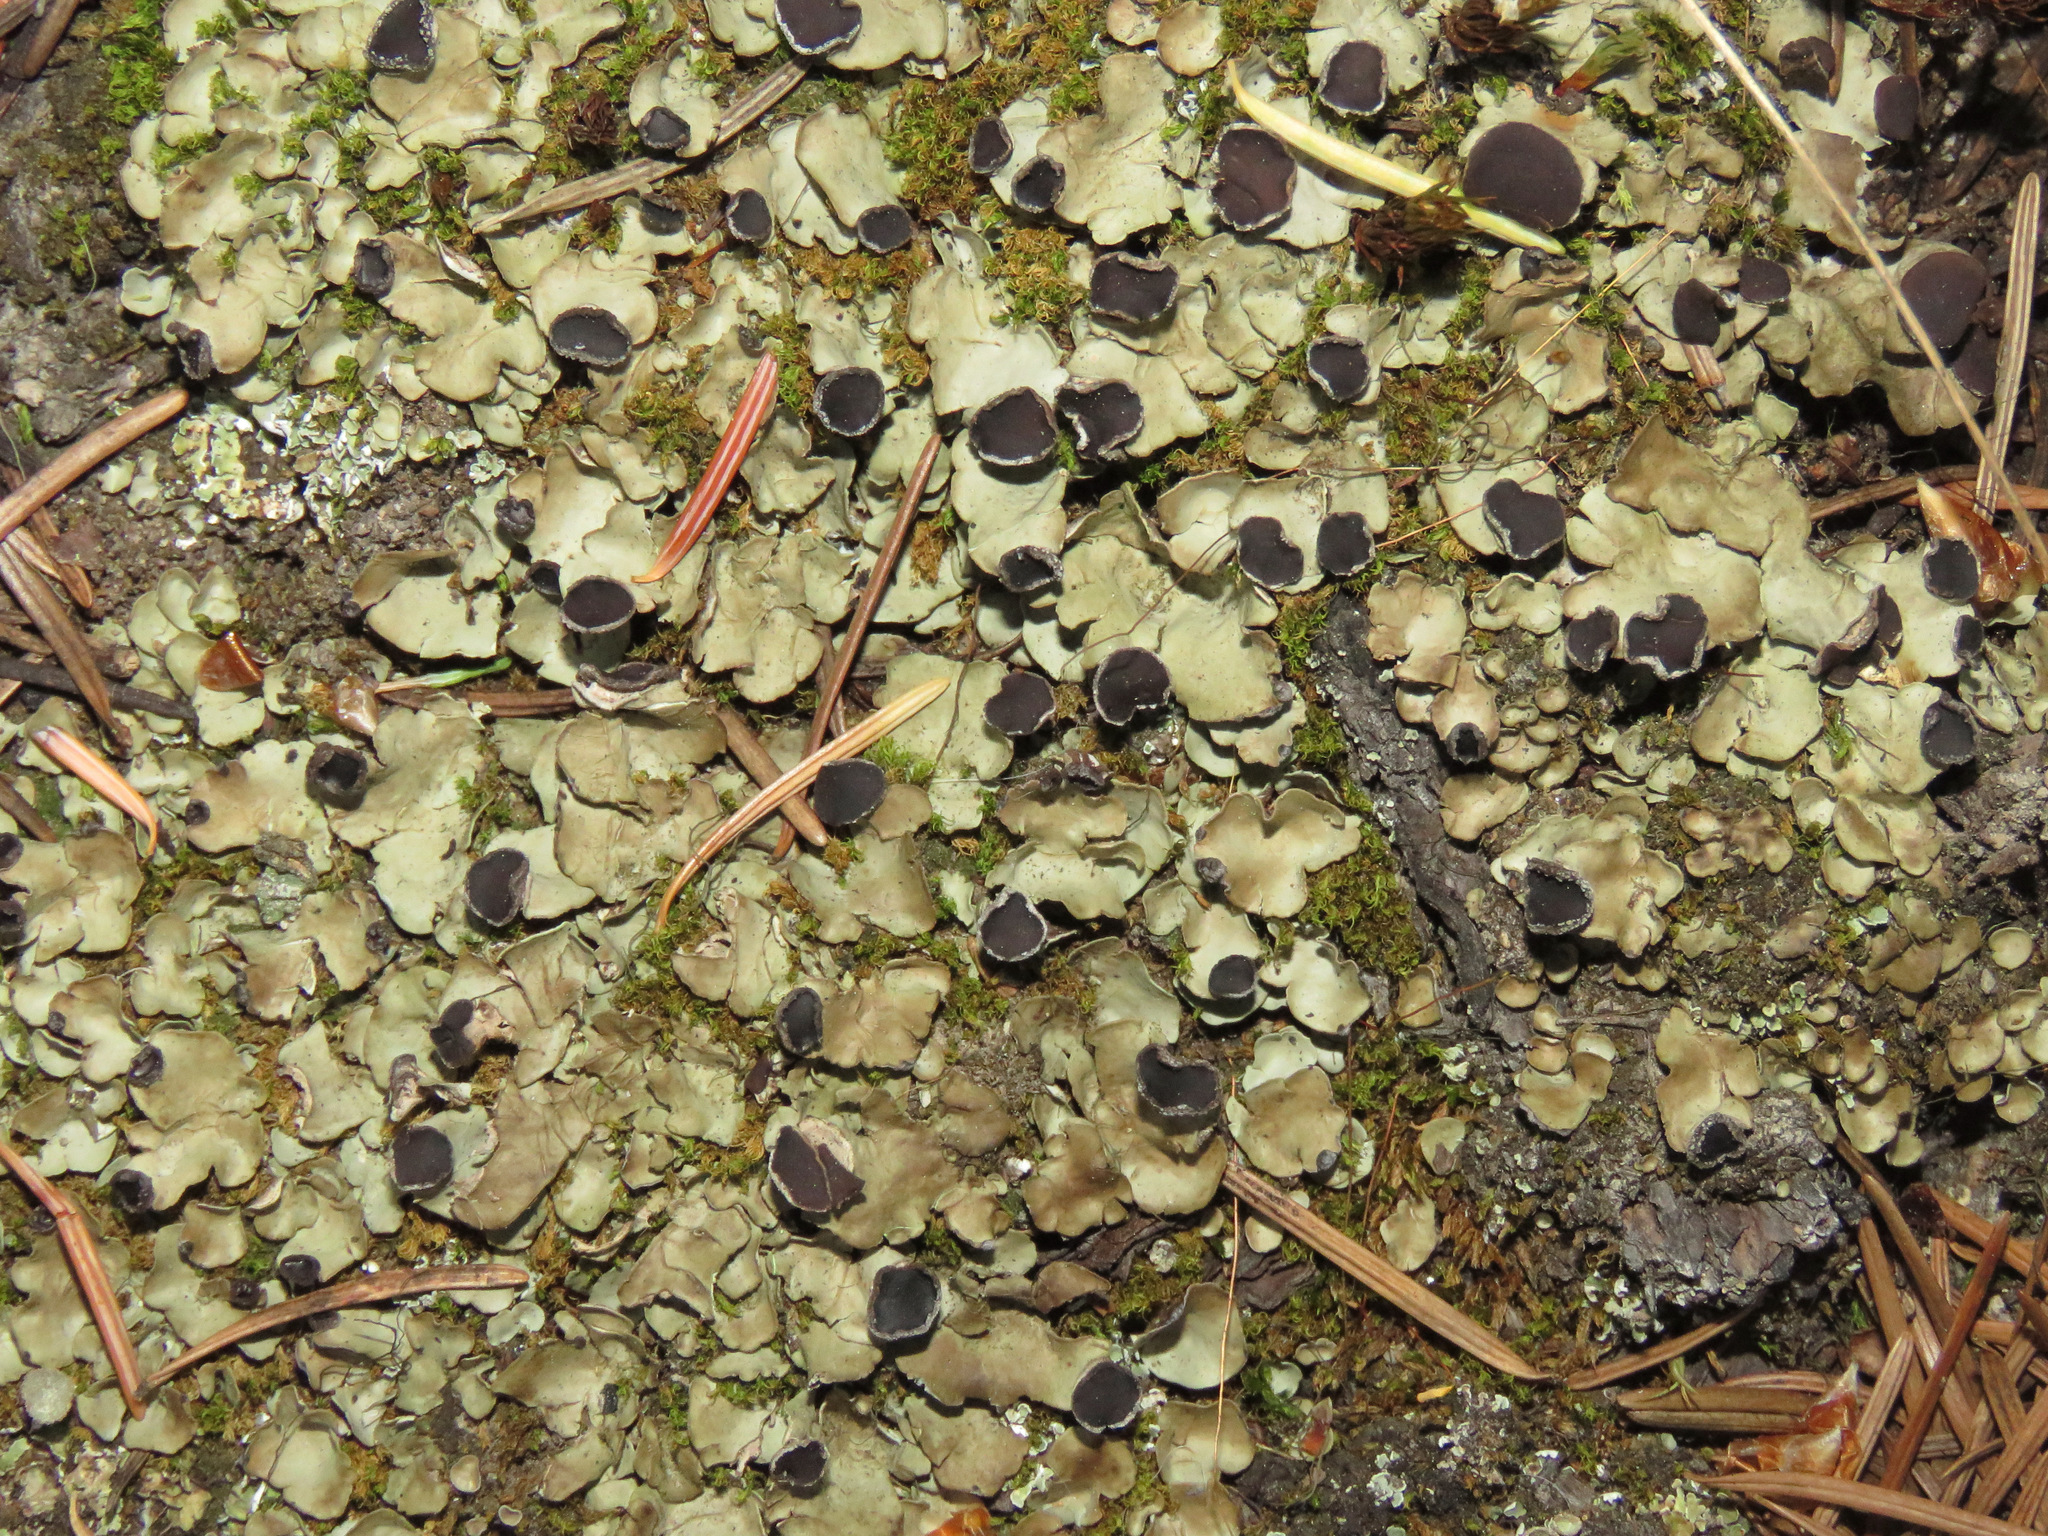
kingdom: Fungi
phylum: Ascomycota
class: Lecanoromycetes
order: Peltigerales
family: Peltigeraceae
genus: Peltigera
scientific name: Peltigera venosa
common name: Pixie gowns lichen
